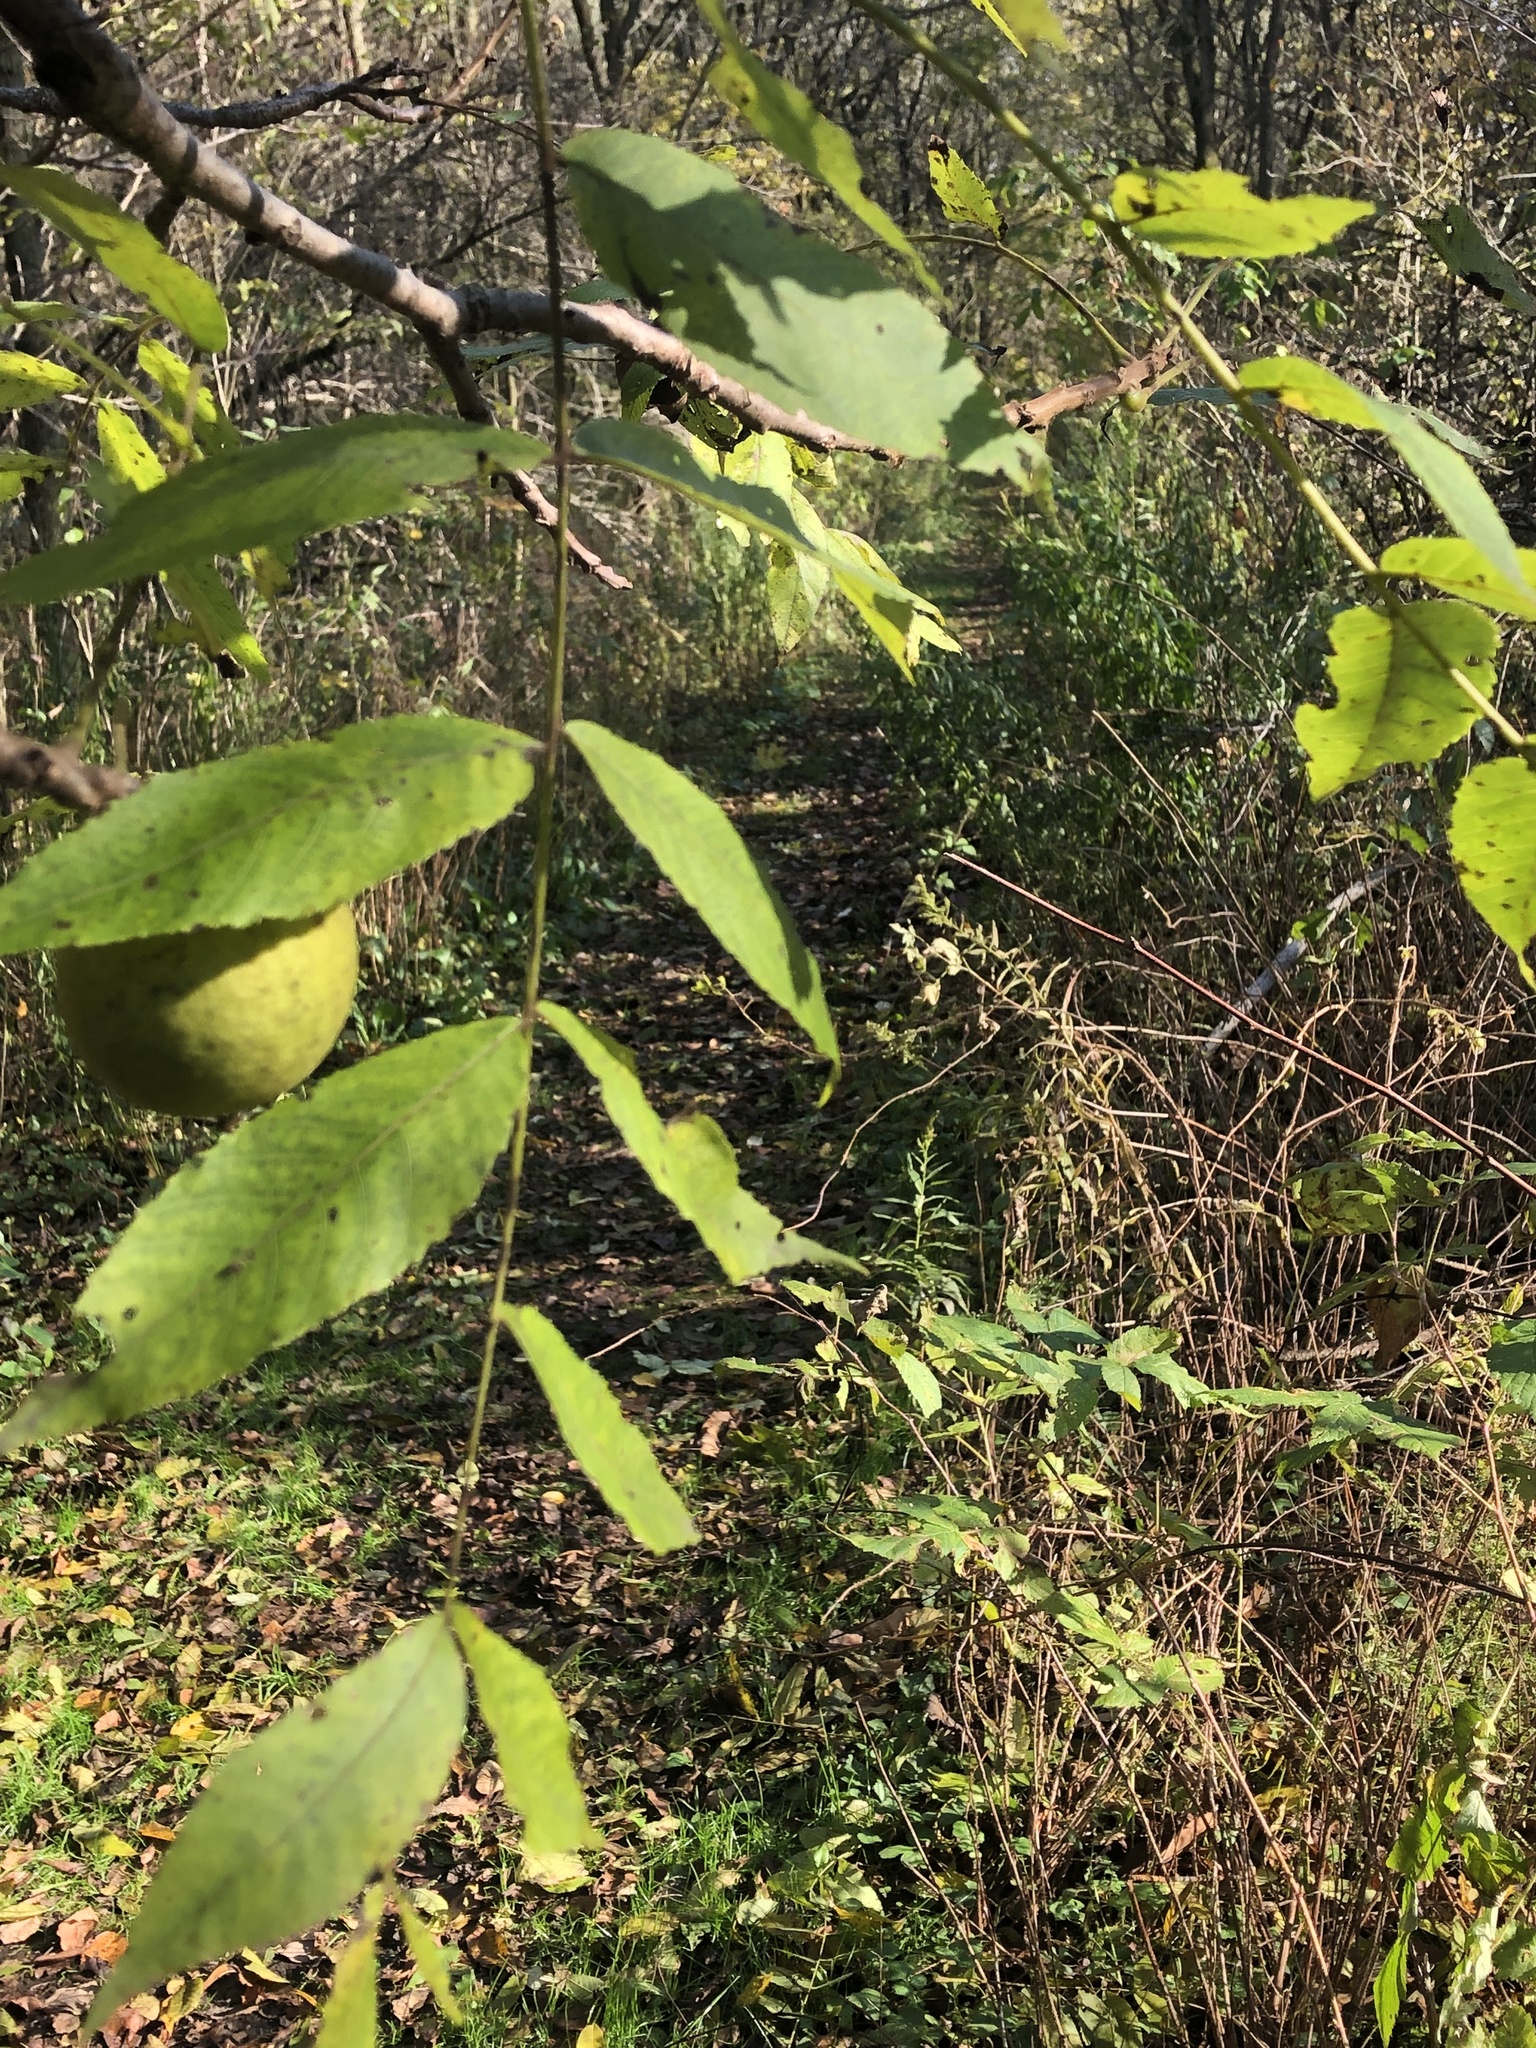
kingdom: Plantae
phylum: Tracheophyta
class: Magnoliopsida
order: Fagales
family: Juglandaceae
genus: Juglans
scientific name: Juglans nigra
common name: Black walnut
